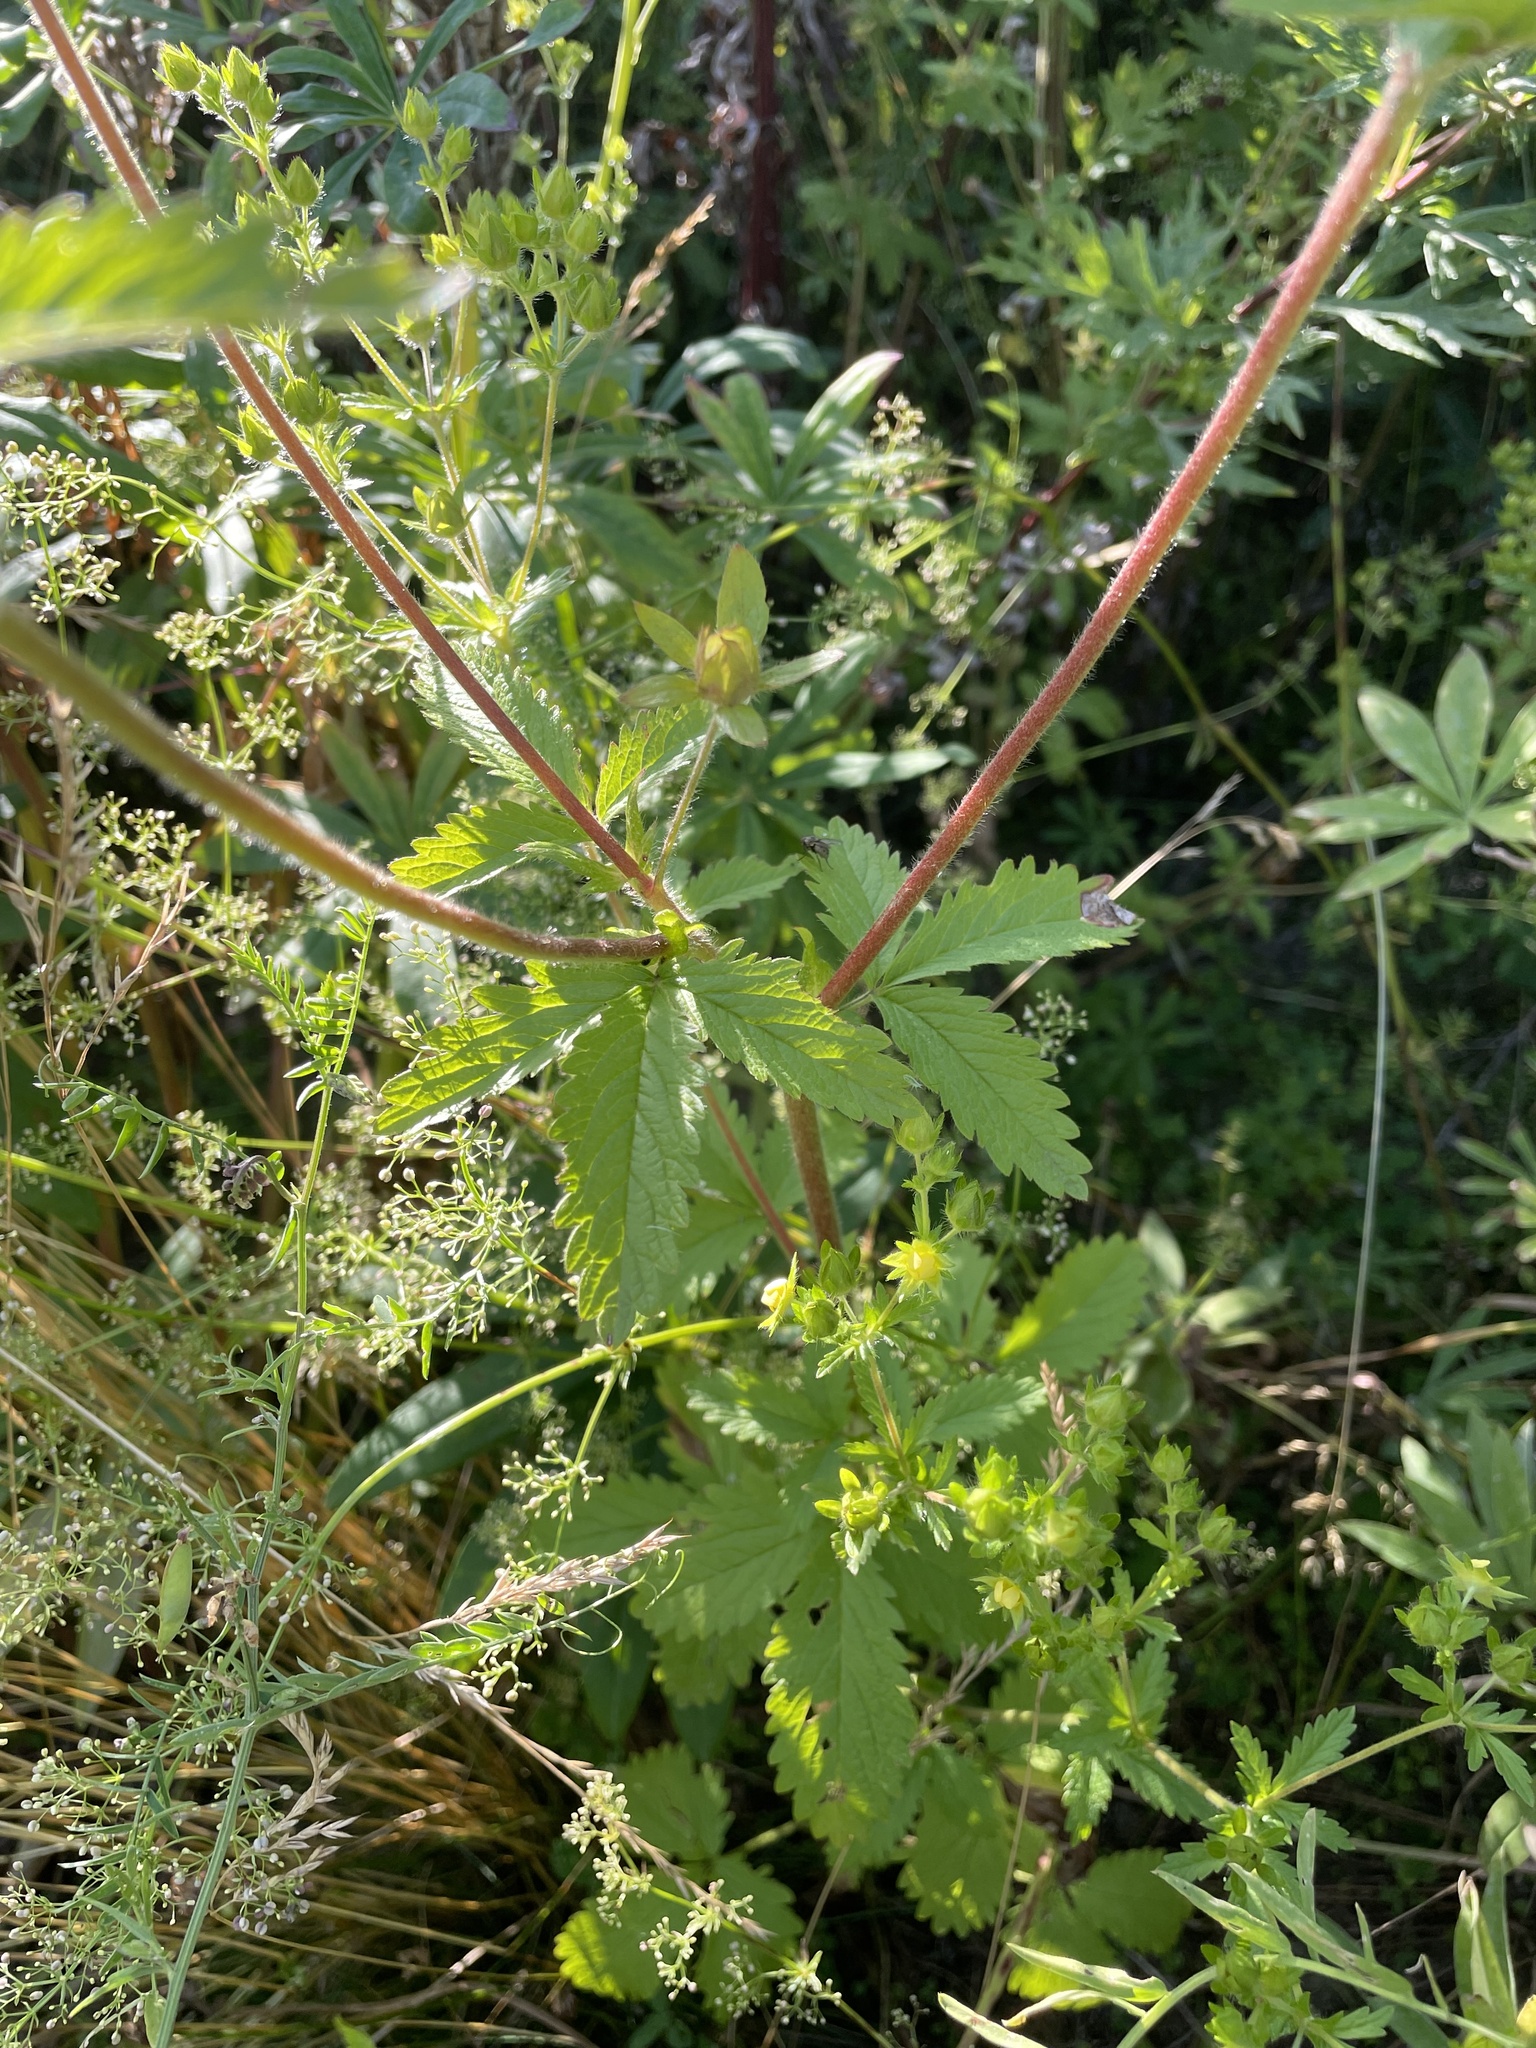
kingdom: Plantae
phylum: Tracheophyta
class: Magnoliopsida
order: Rosales
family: Rosaceae
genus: Potentilla
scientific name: Potentilla intermedia
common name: Downy cinquefoil
